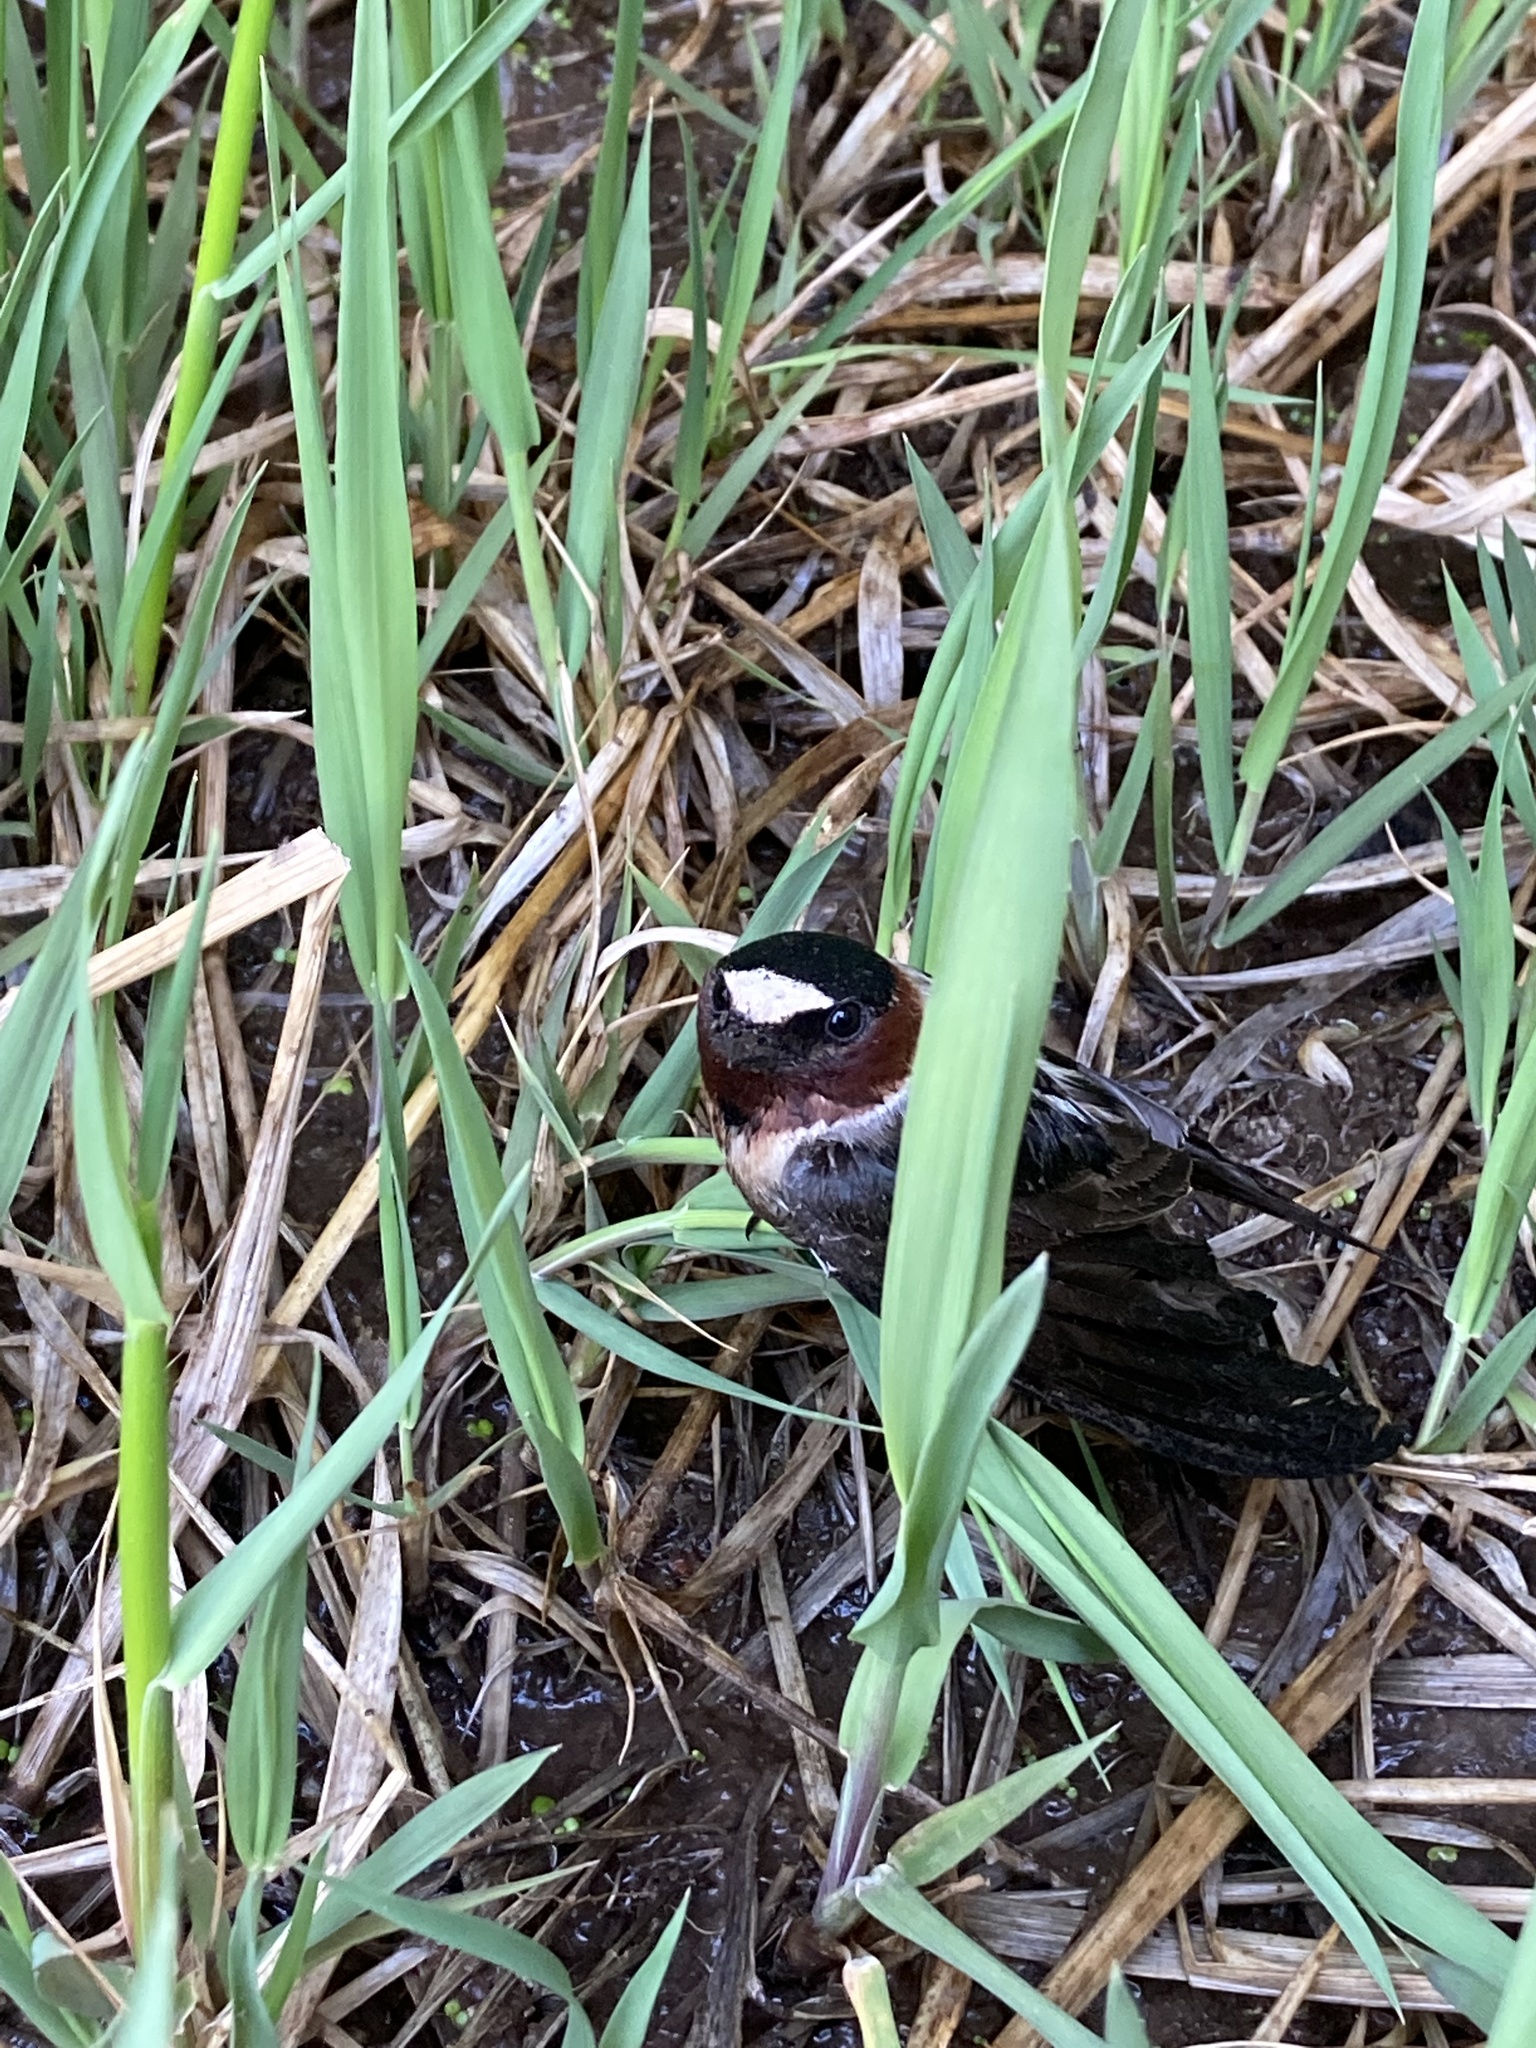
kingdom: Animalia
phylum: Chordata
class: Aves
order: Passeriformes
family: Hirundinidae
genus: Petrochelidon
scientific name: Petrochelidon pyrrhonota
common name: American cliff swallow
